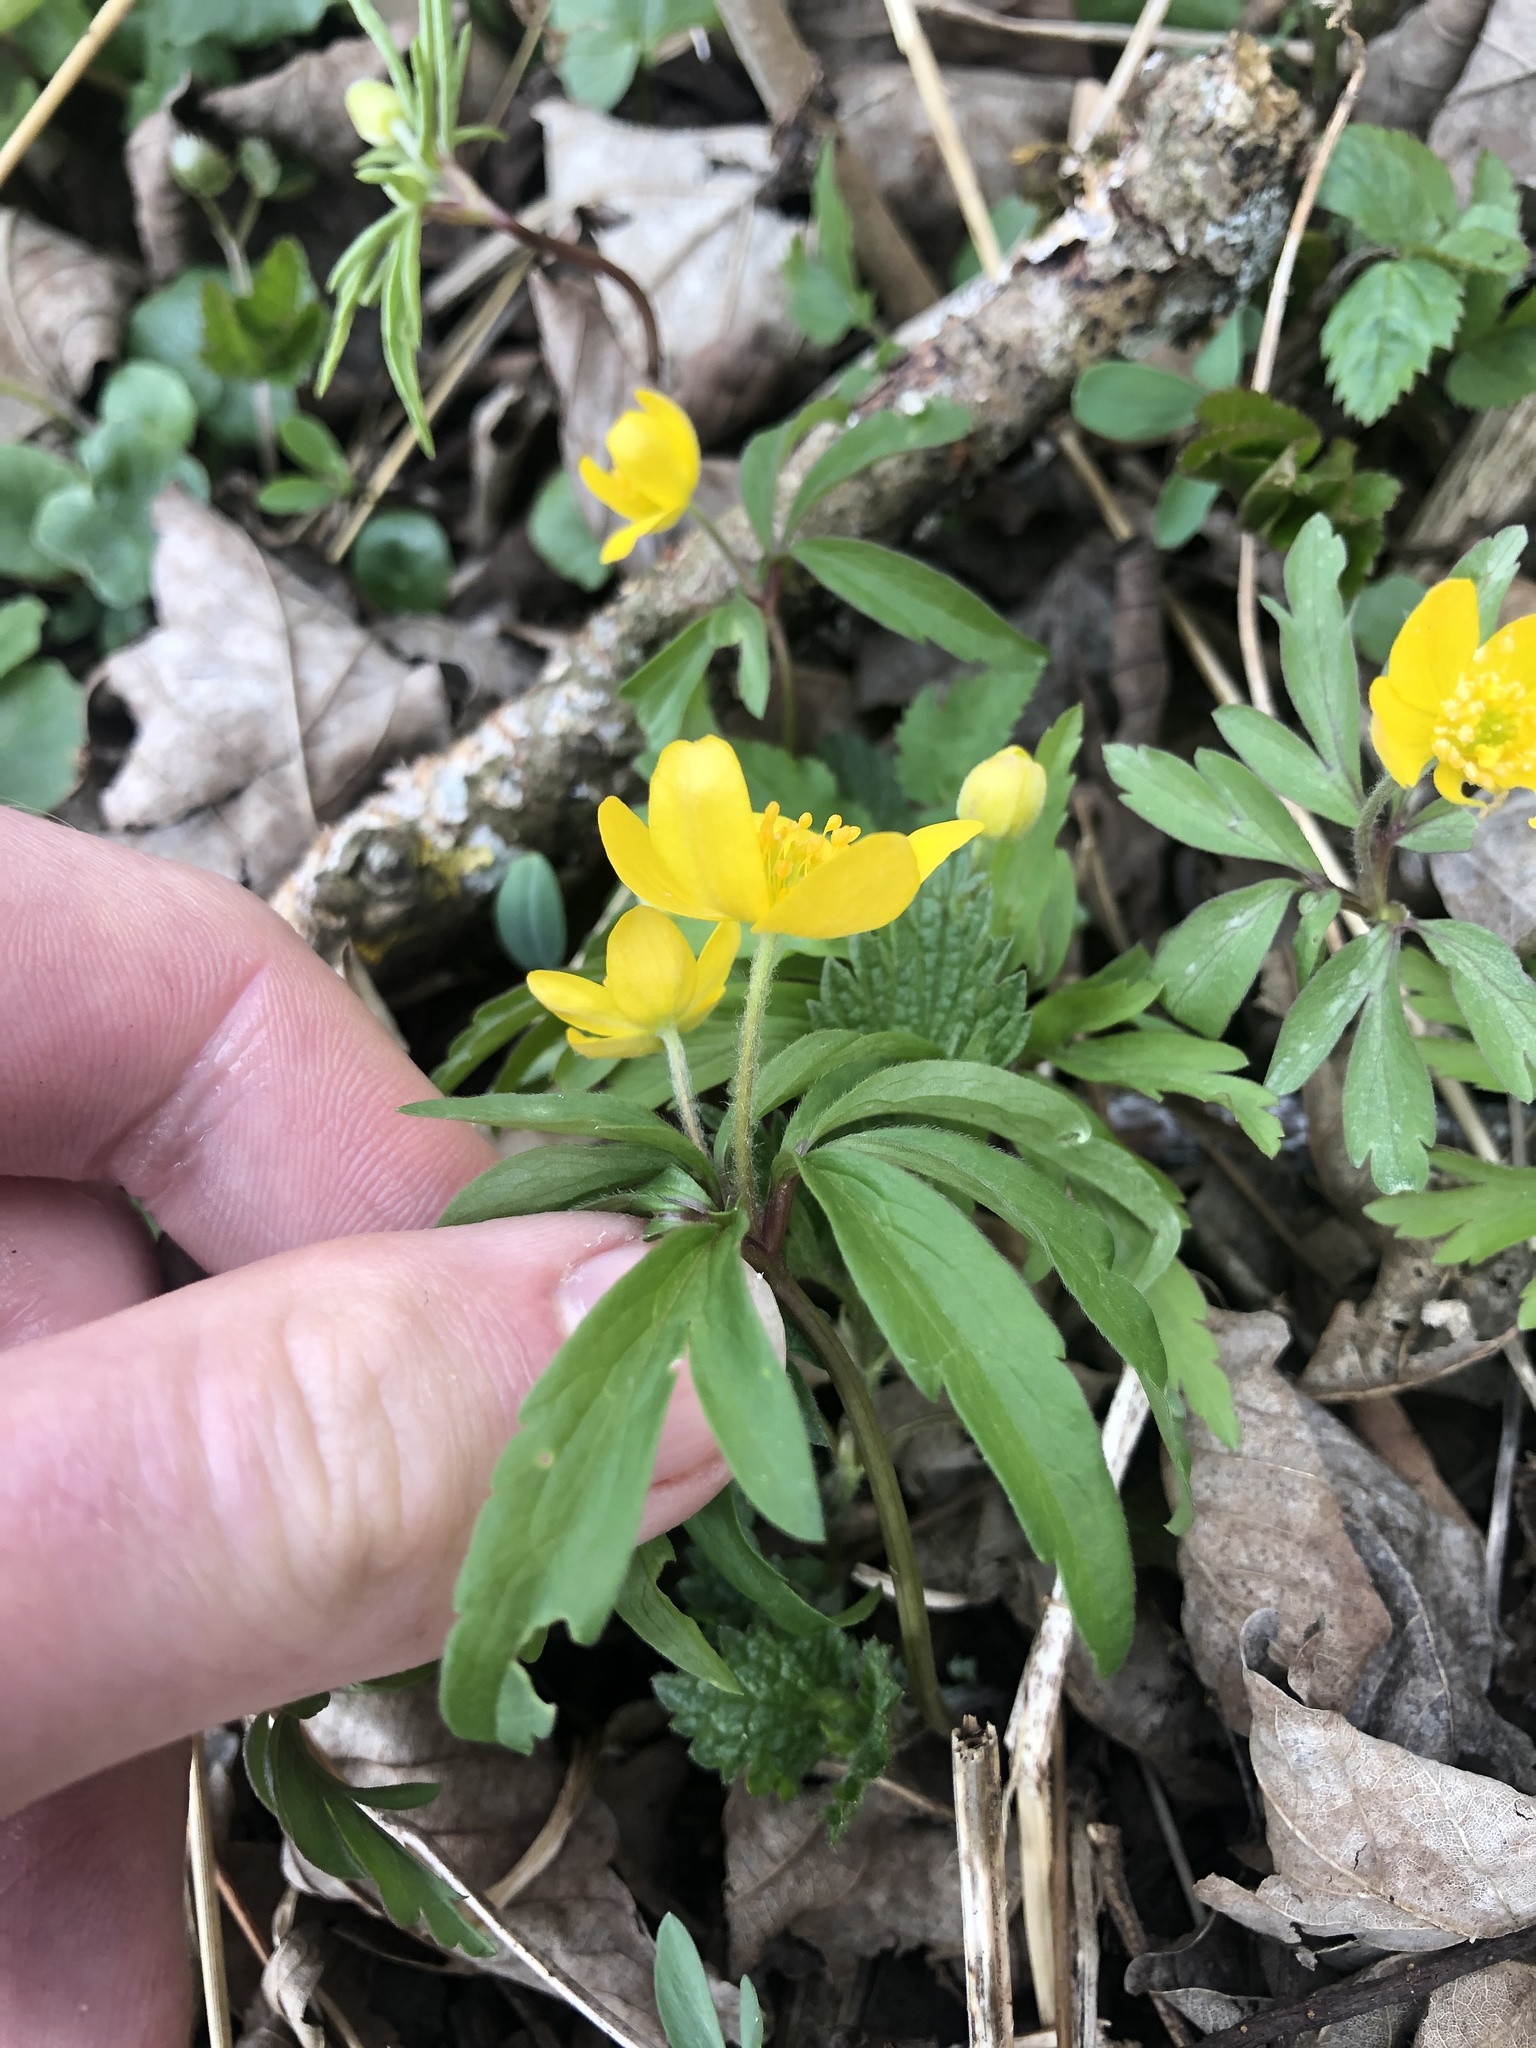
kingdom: Plantae
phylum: Tracheophyta
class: Magnoliopsida
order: Ranunculales
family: Ranunculaceae
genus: Anemone
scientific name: Anemone ranunculoides
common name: Yellow anemone
